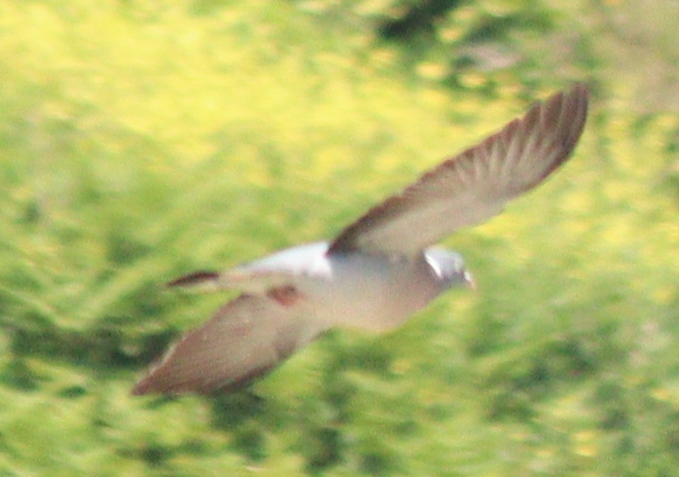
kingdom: Animalia
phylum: Chordata
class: Aves
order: Columbiformes
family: Columbidae
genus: Columba
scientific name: Columba palumbus
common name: Common wood pigeon
